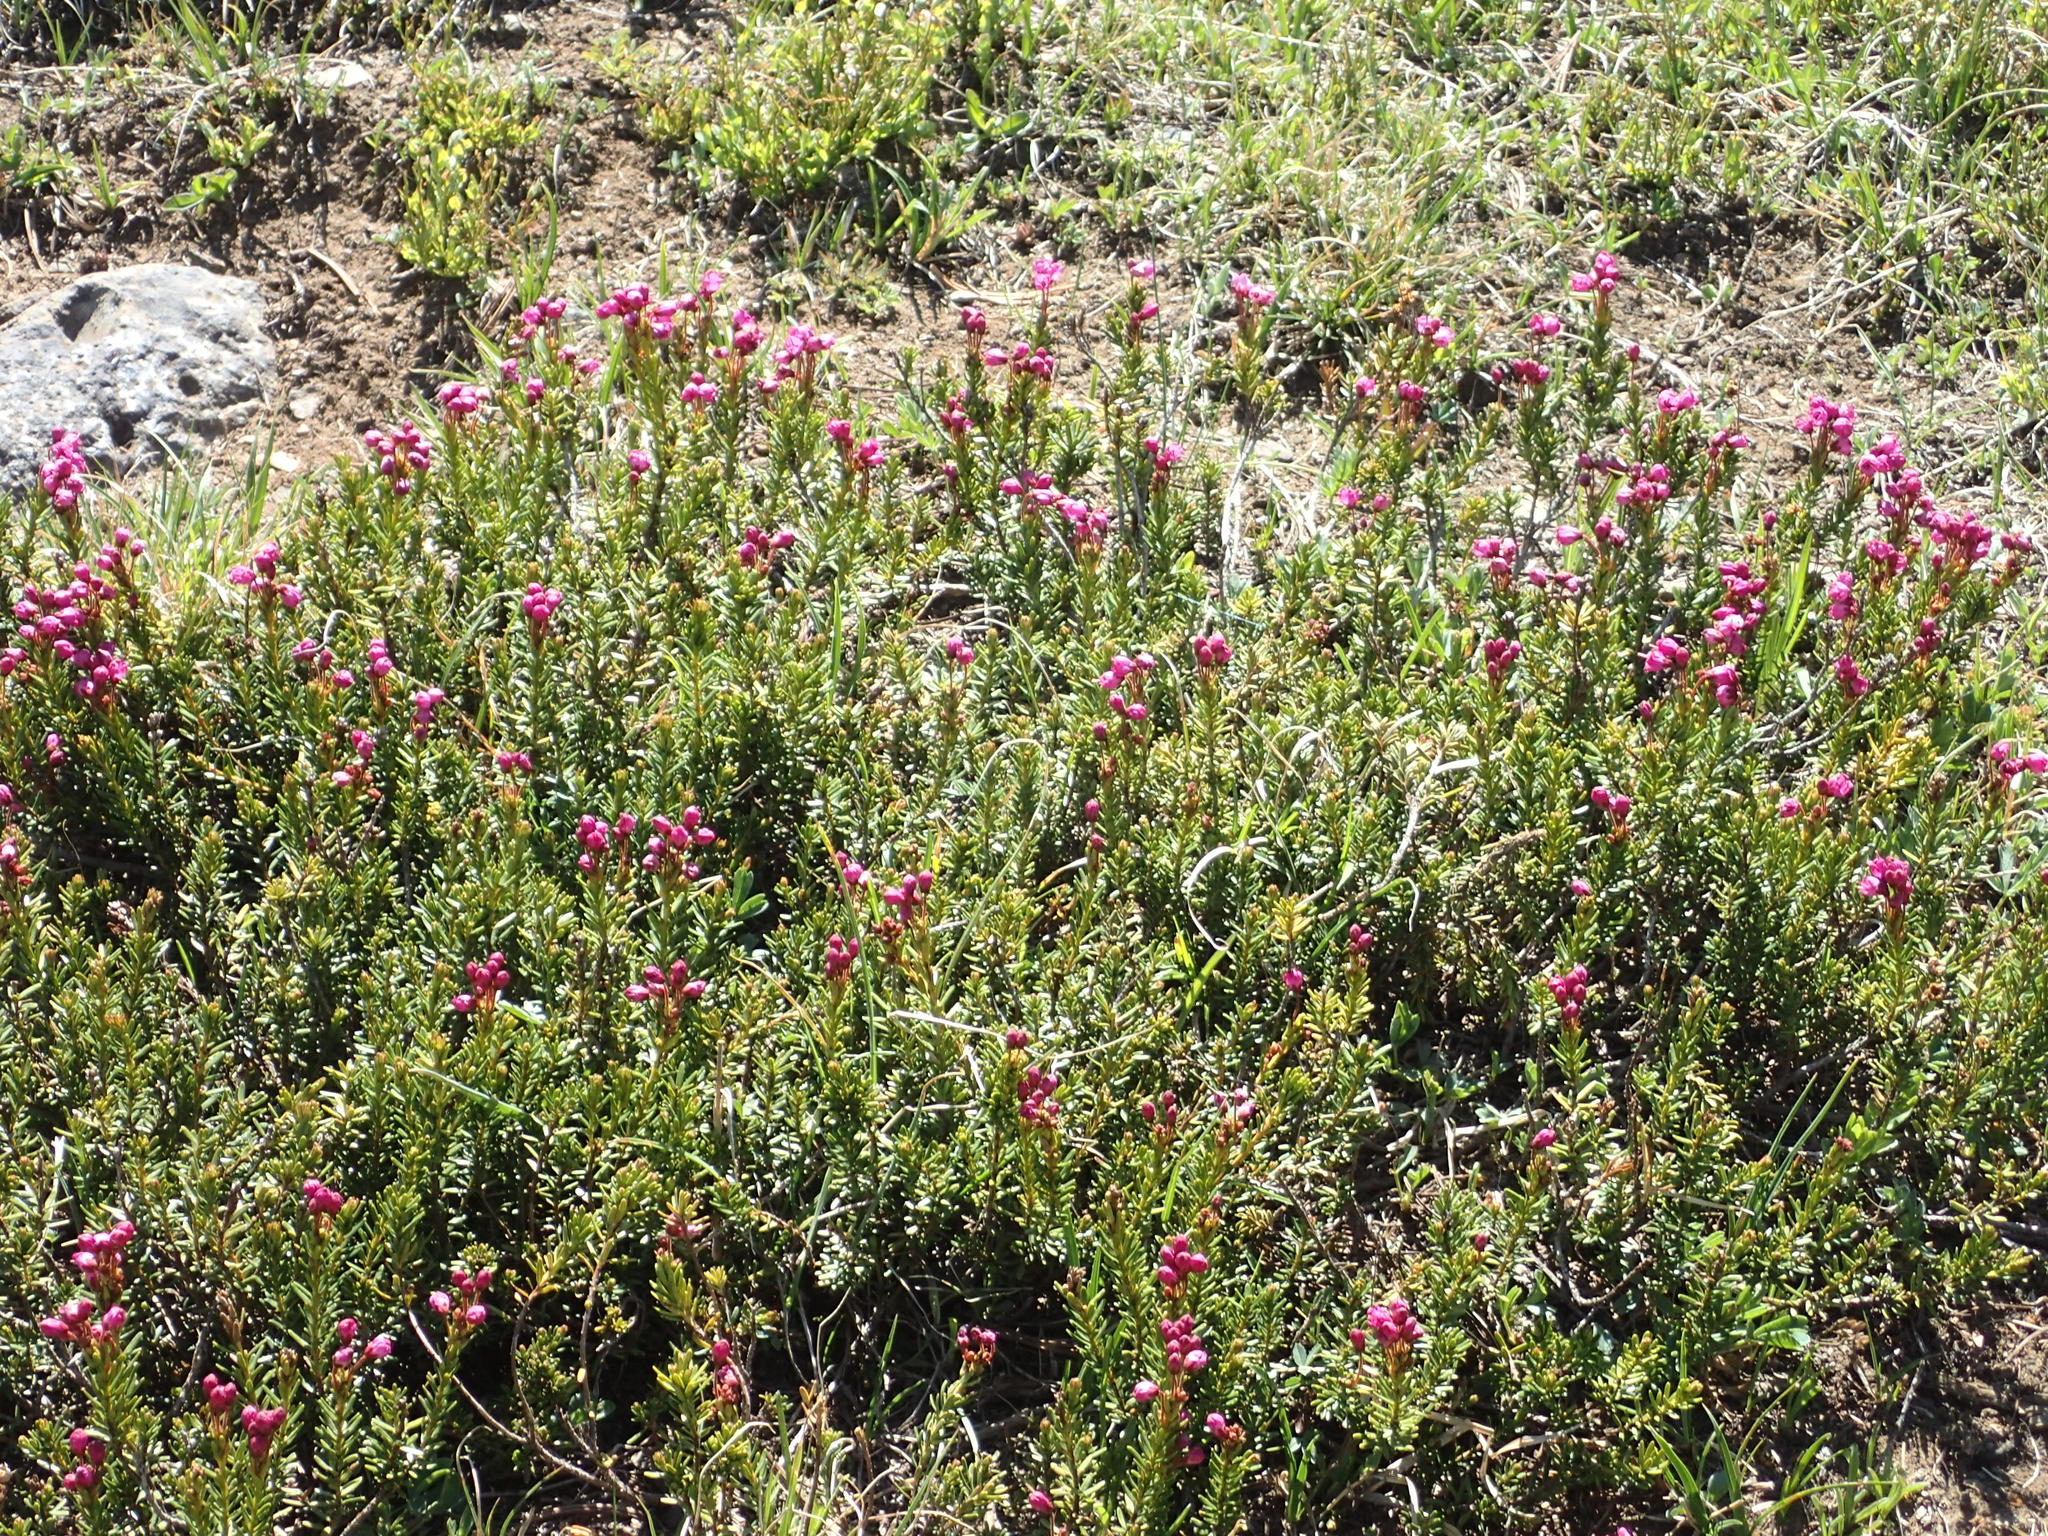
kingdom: Plantae
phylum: Tracheophyta
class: Magnoliopsida
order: Ericales
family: Ericaceae
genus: Phyllodoce
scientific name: Phyllodoce empetriformis
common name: Pink mountain heather
